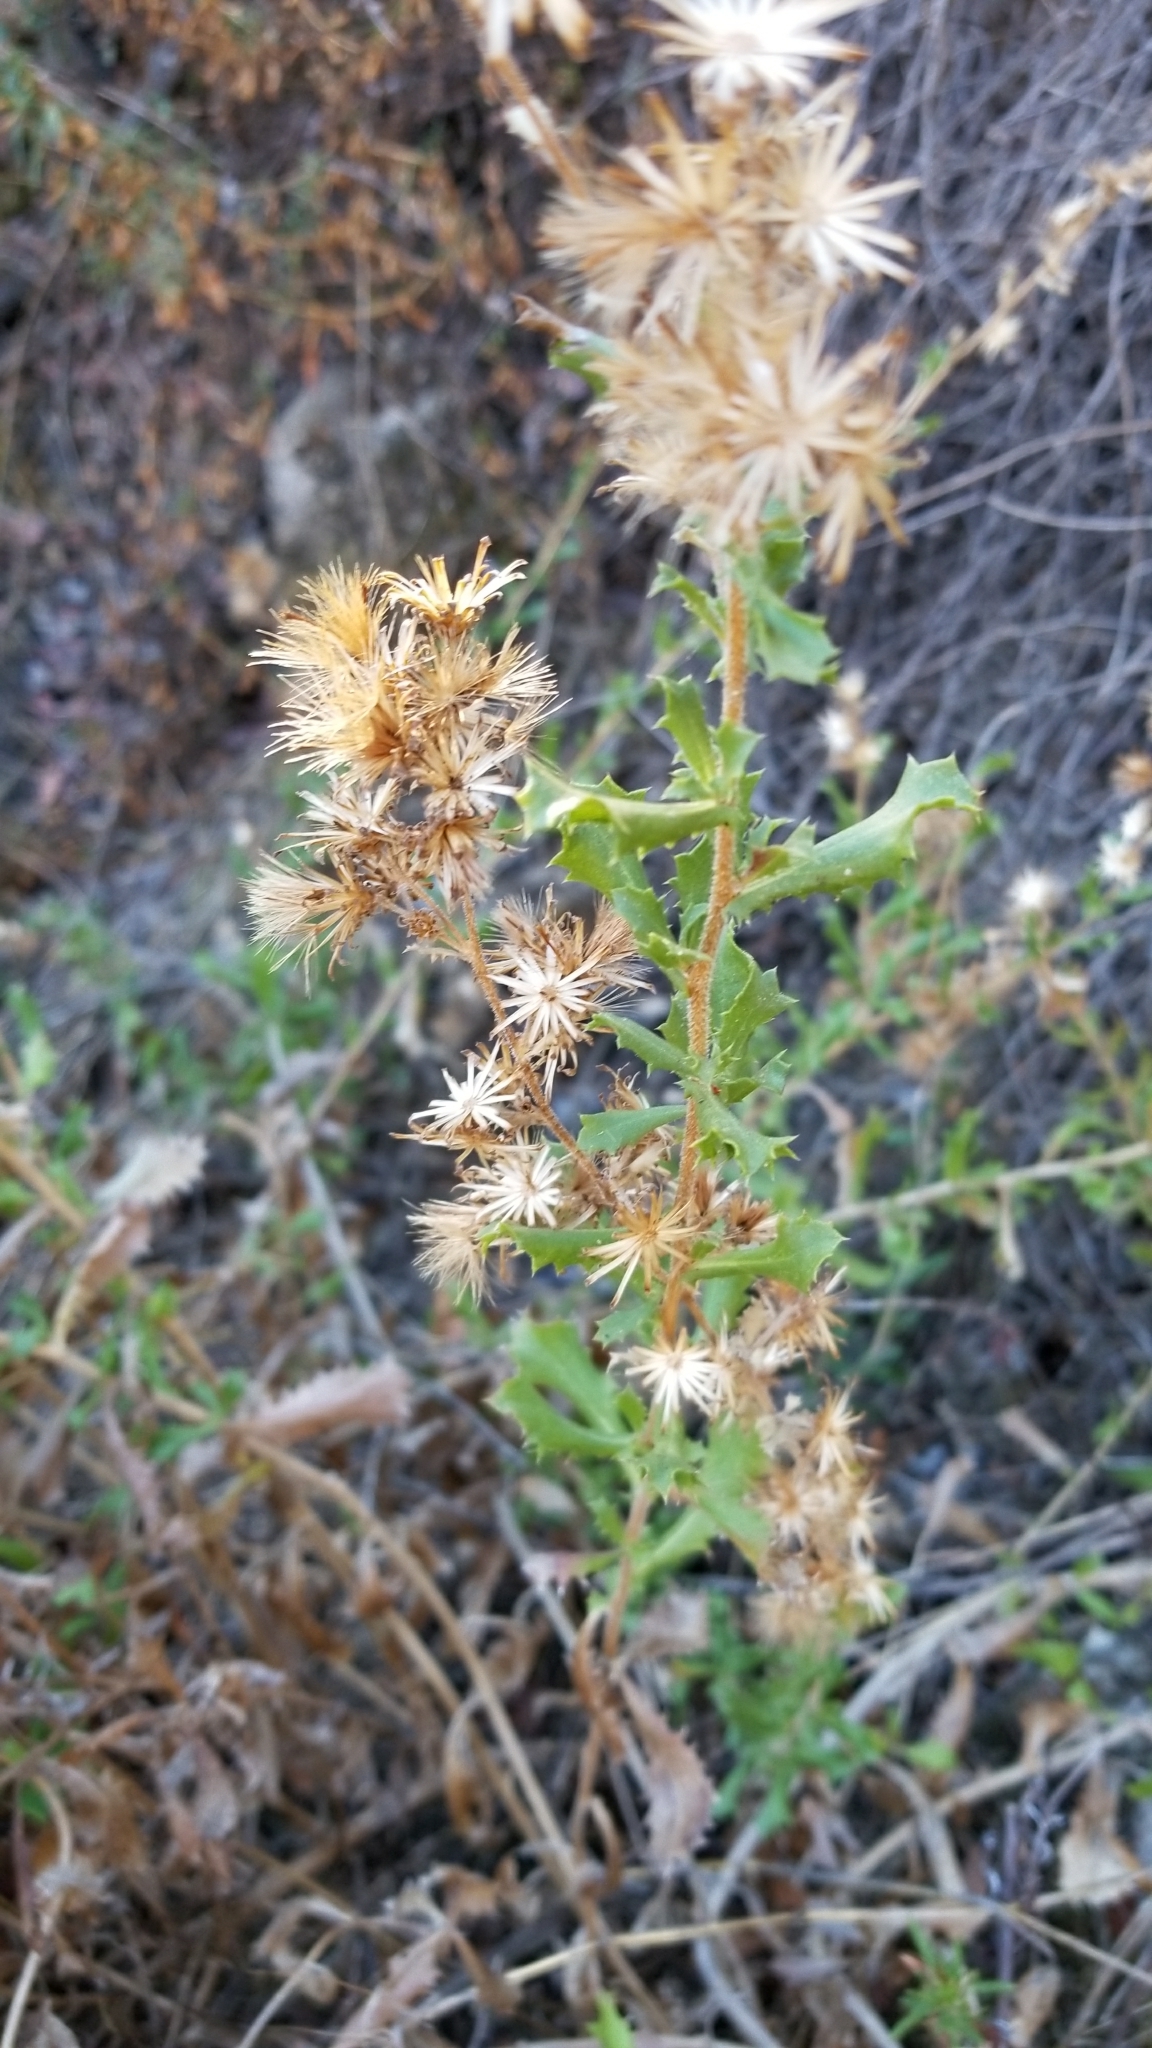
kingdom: Plantae
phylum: Tracheophyta
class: Magnoliopsida
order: Asterales
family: Asteraceae
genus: Hazardia
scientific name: Hazardia squarrosa
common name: Saw-tooth goldenbush
